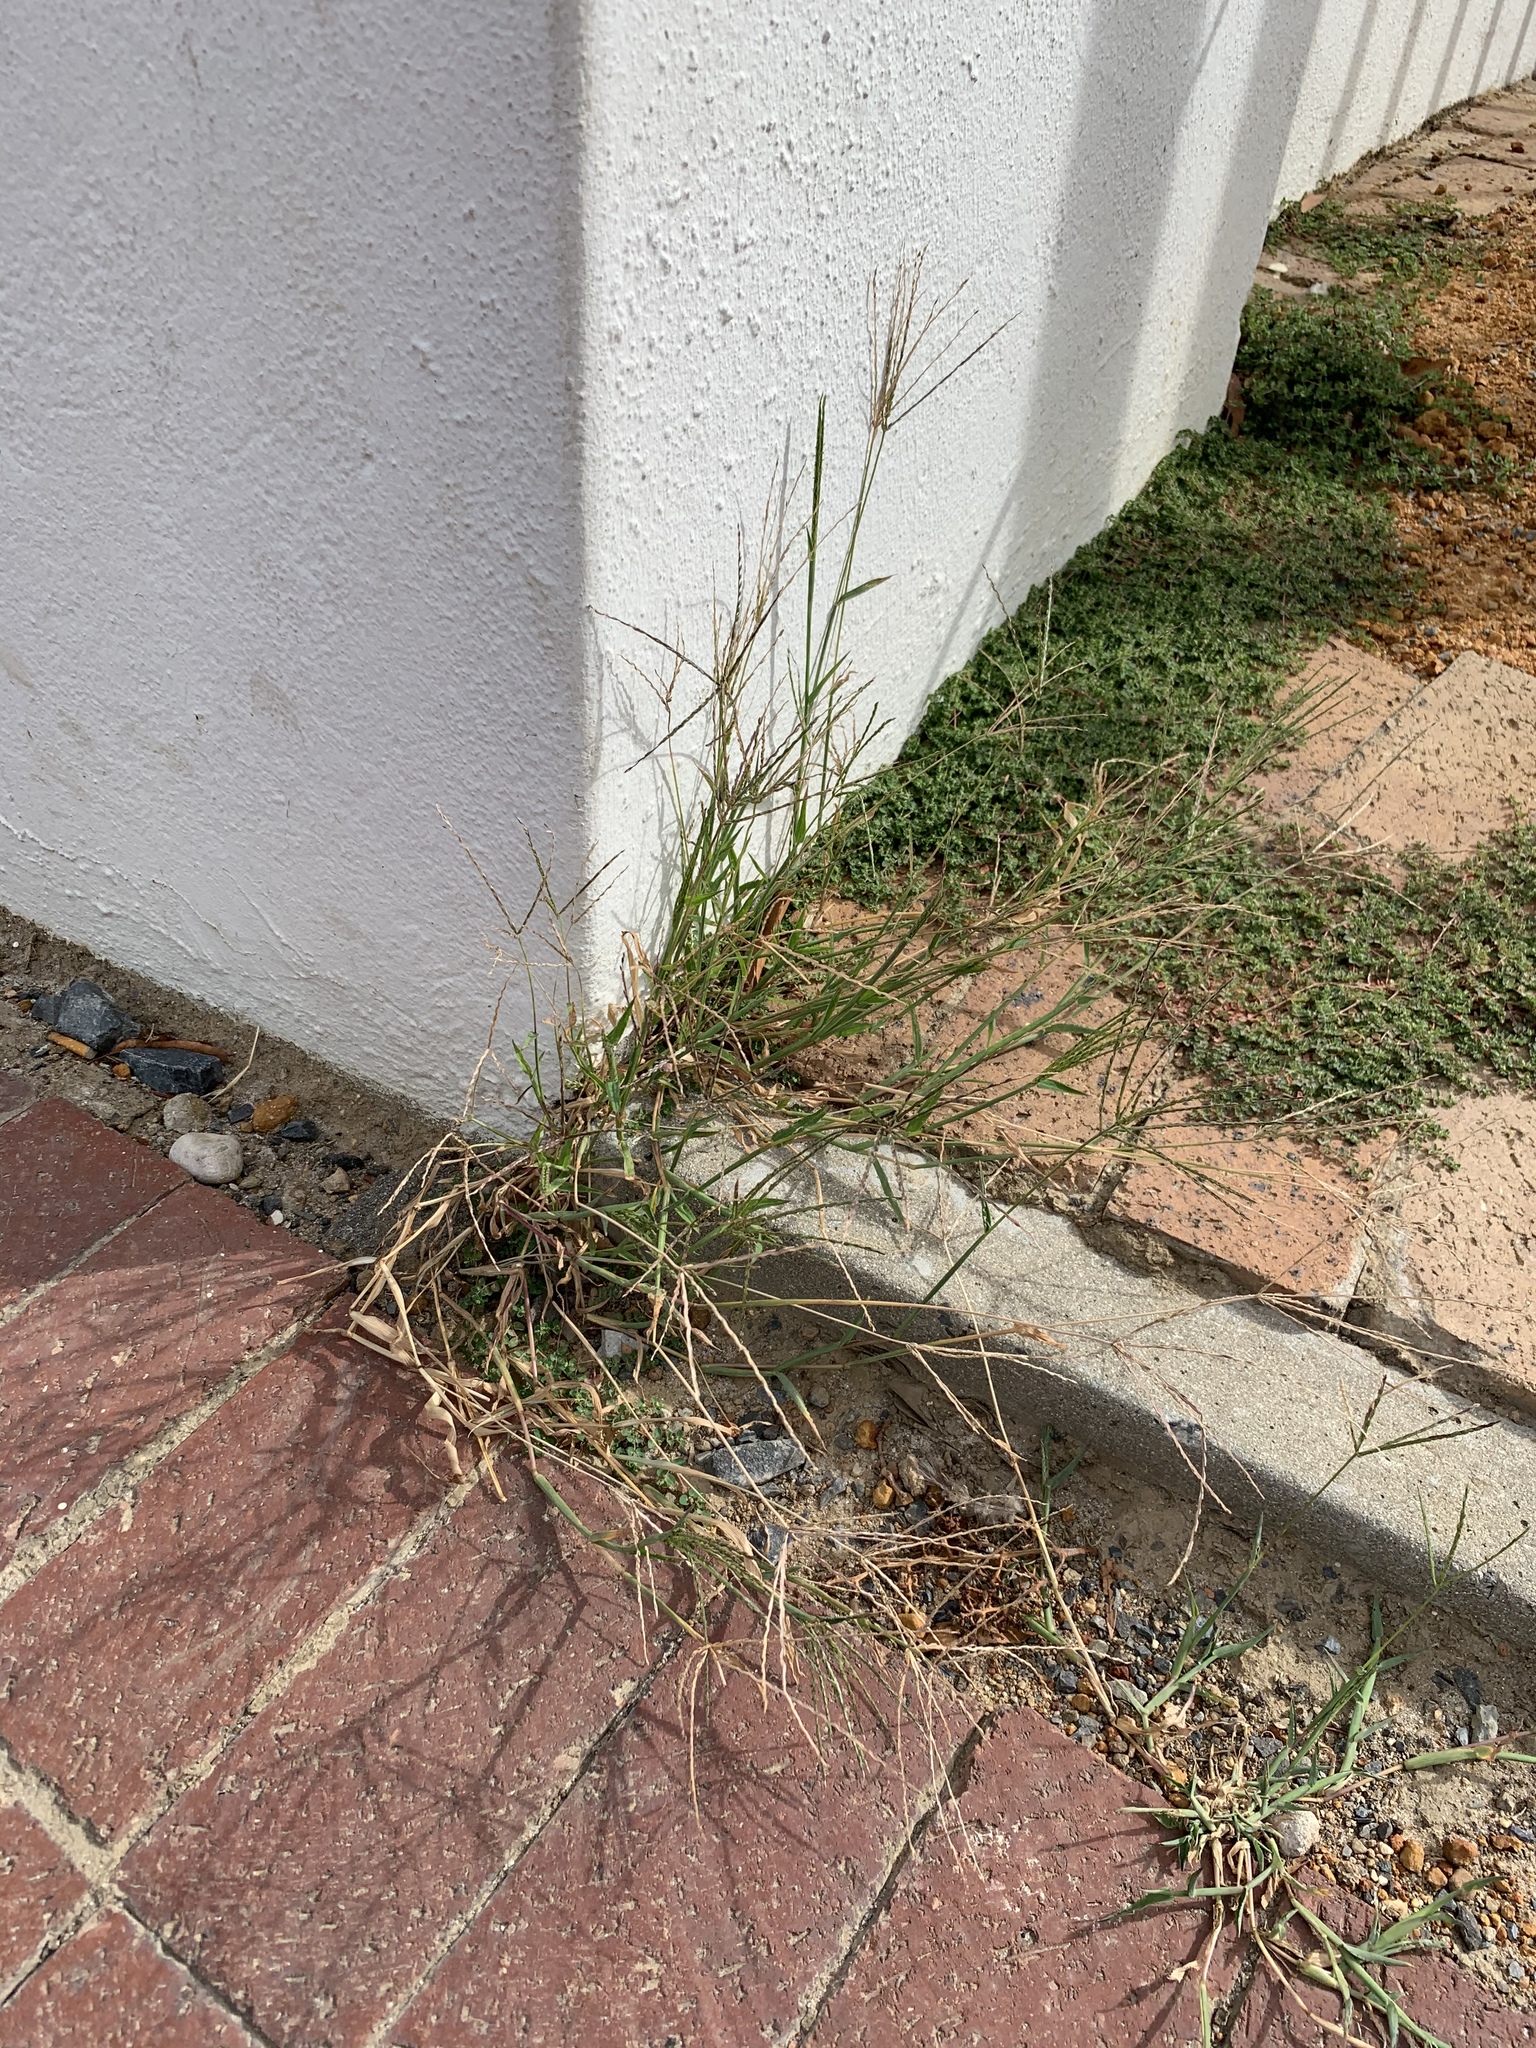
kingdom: Plantae
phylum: Tracheophyta
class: Liliopsida
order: Poales
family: Poaceae
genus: Cynodon
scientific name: Cynodon dactylon
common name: Bermuda grass
